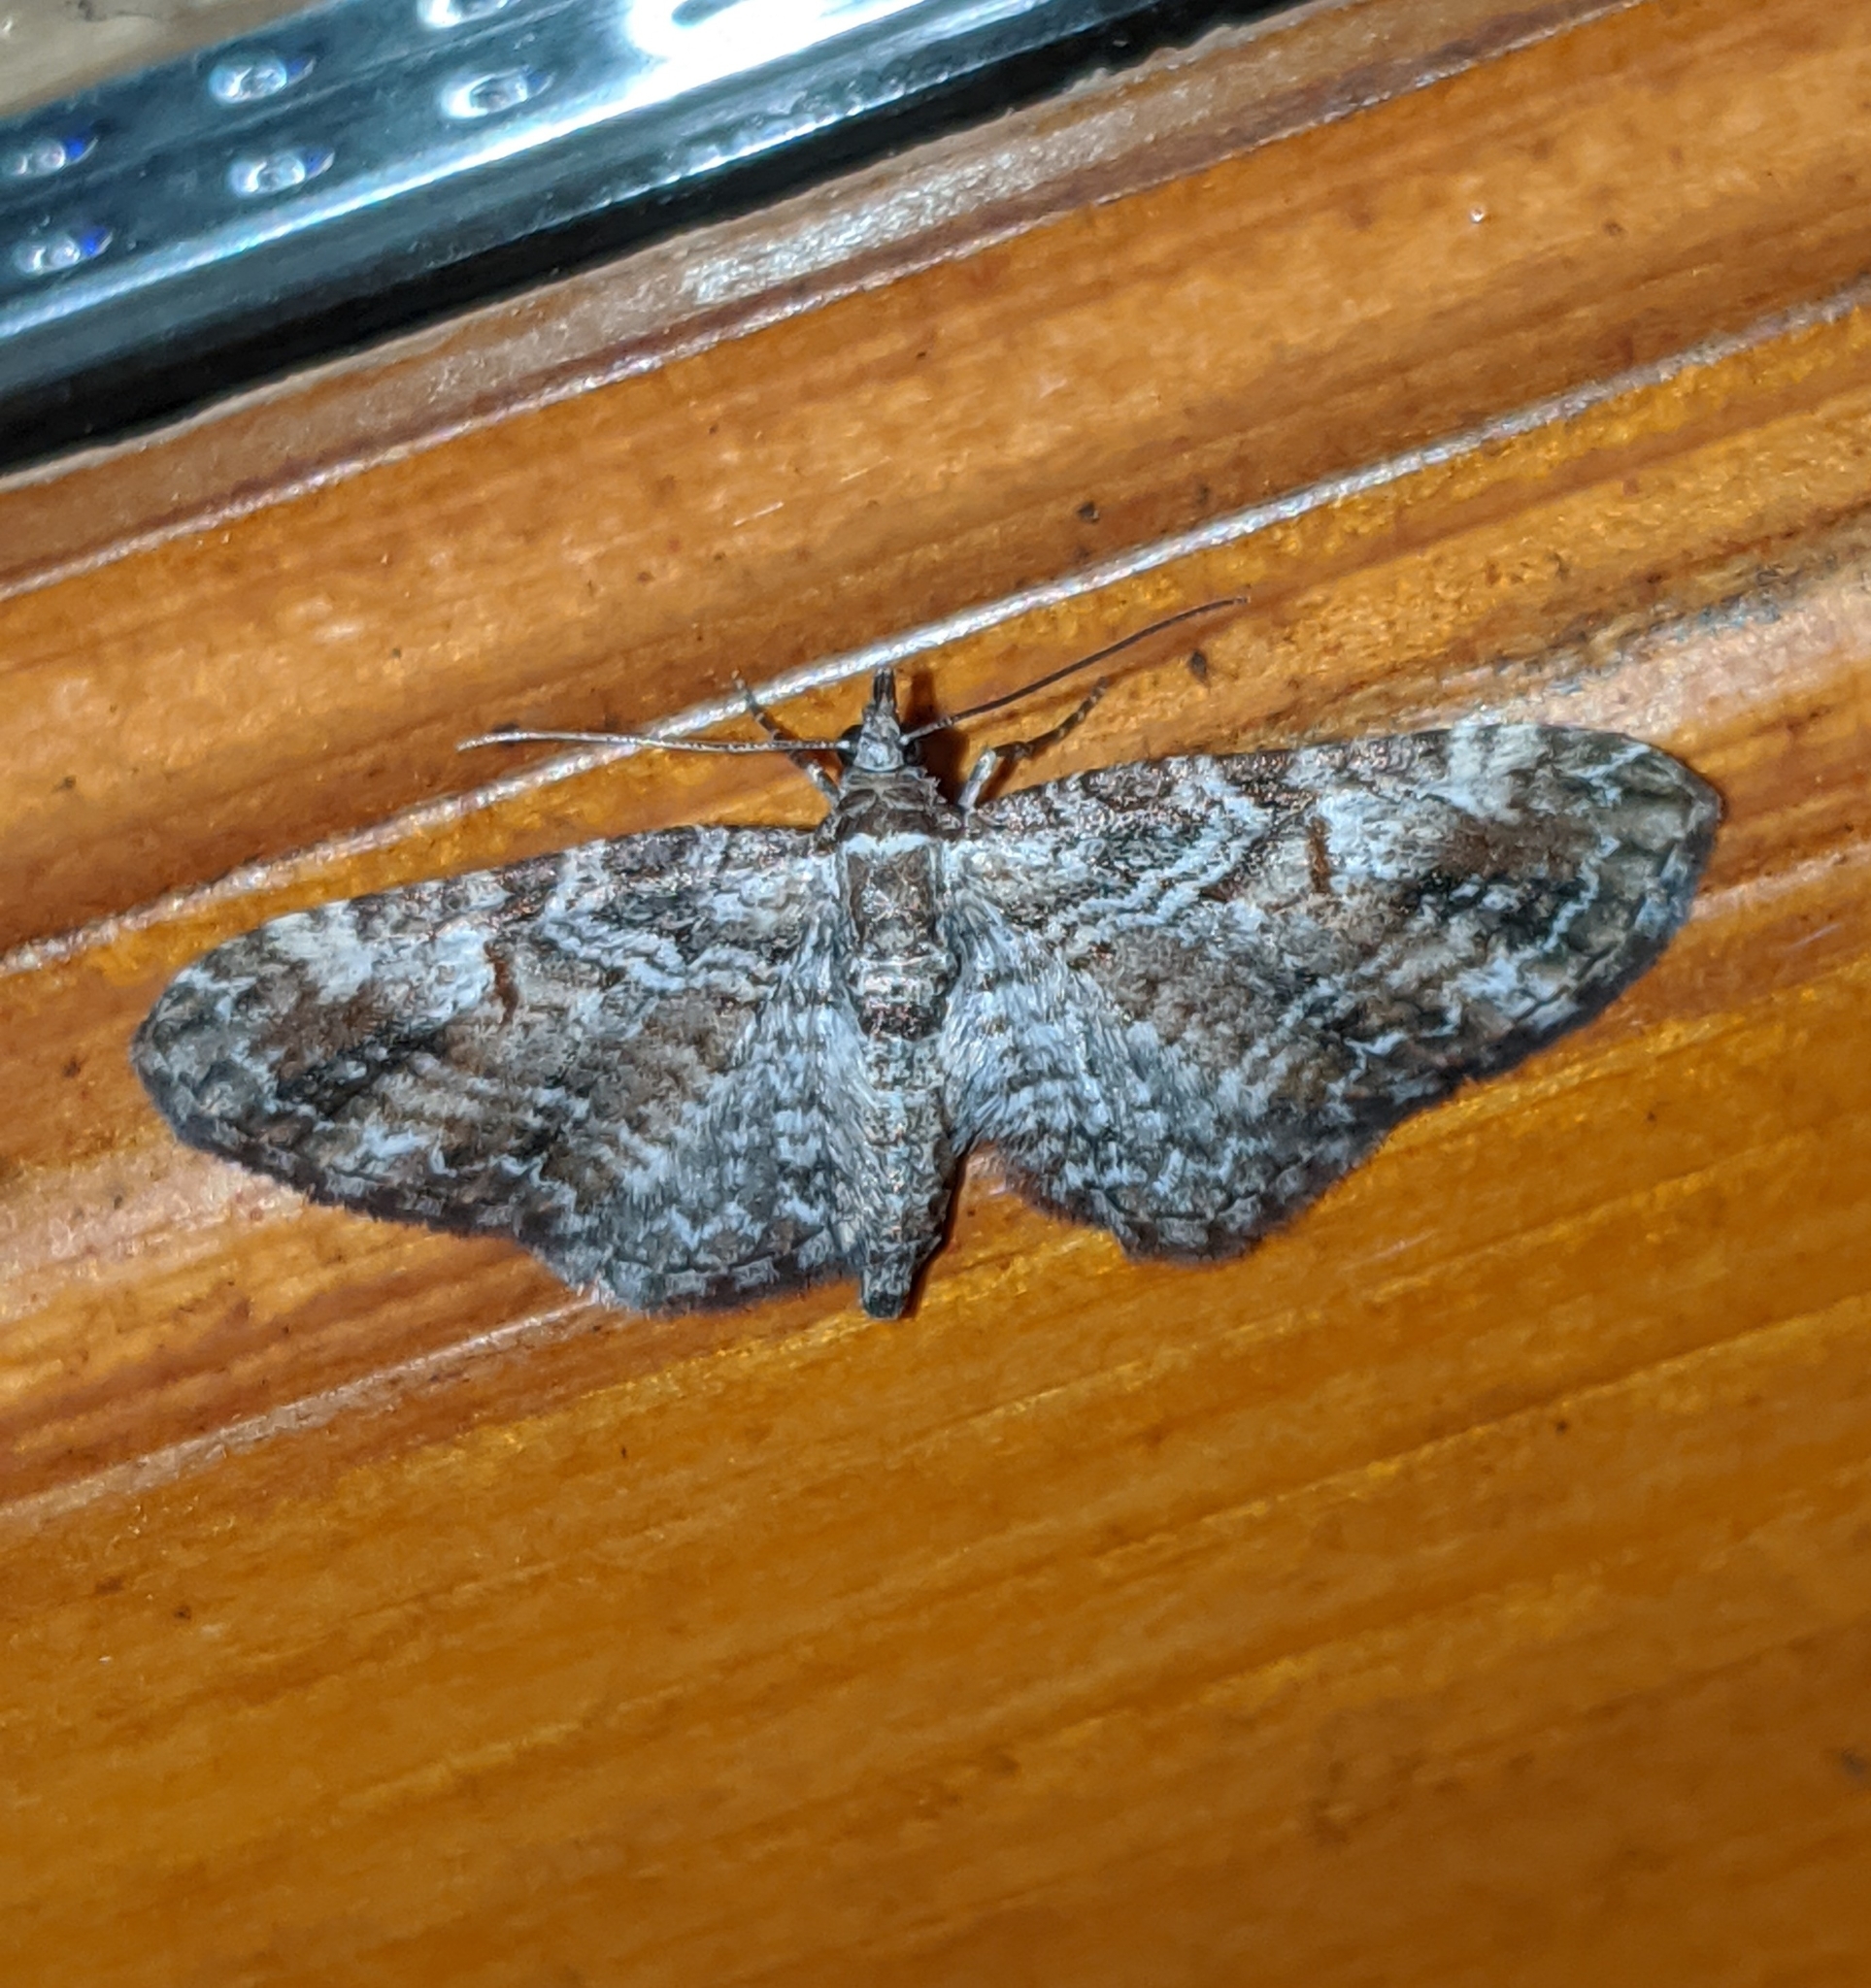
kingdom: Animalia
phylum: Arthropoda
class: Insecta
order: Lepidoptera
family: Geometridae
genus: Eupithecia
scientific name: Eupithecia graefii
